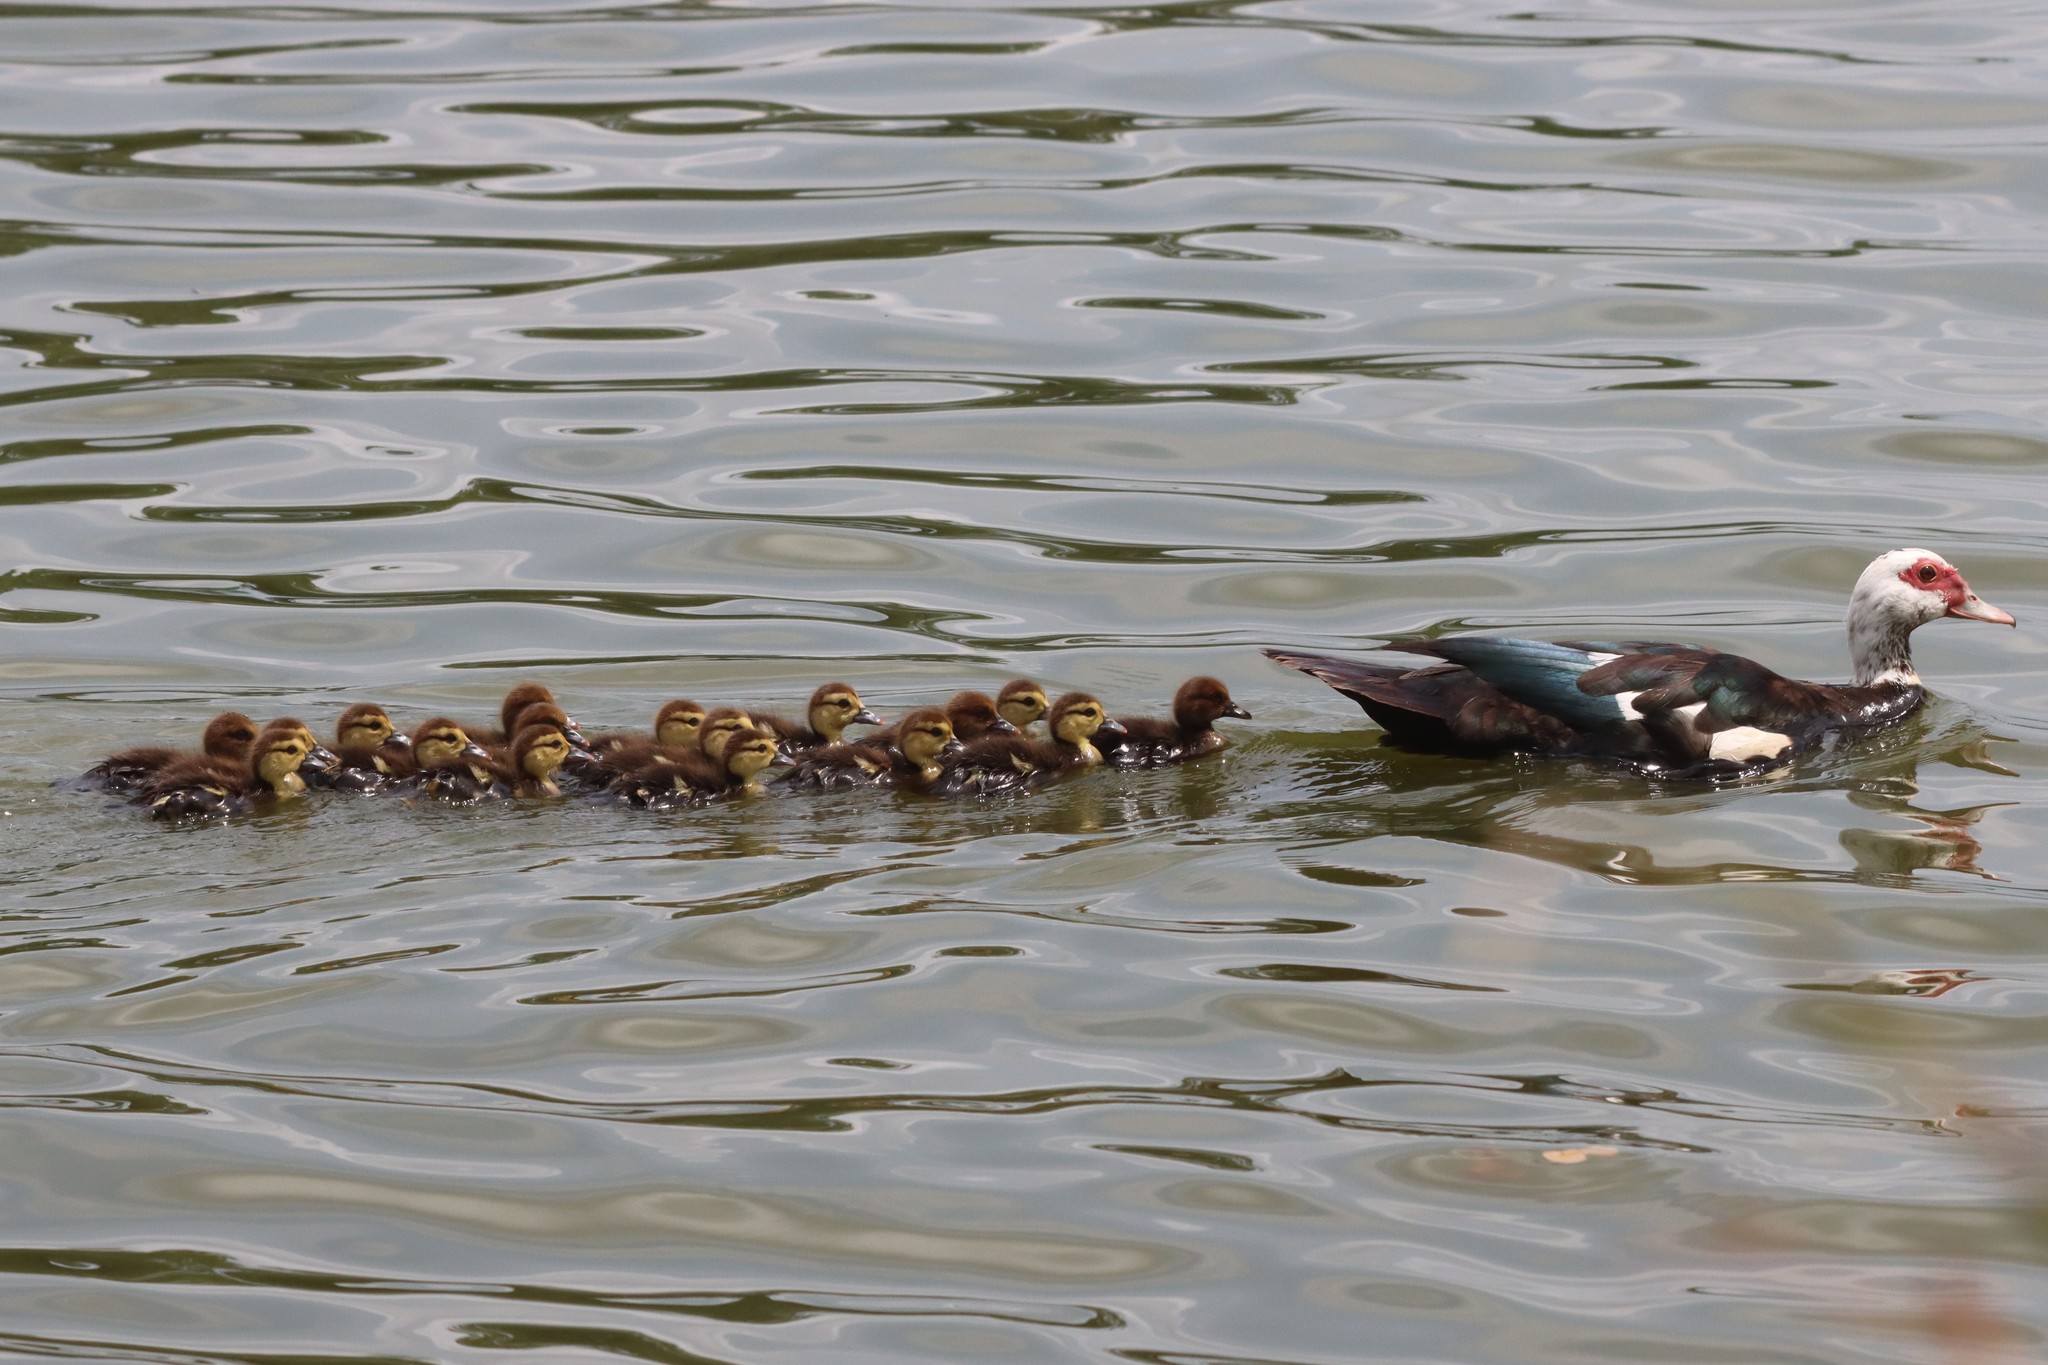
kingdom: Animalia
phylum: Chordata
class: Aves
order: Anseriformes
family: Anatidae
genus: Cairina
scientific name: Cairina moschata
